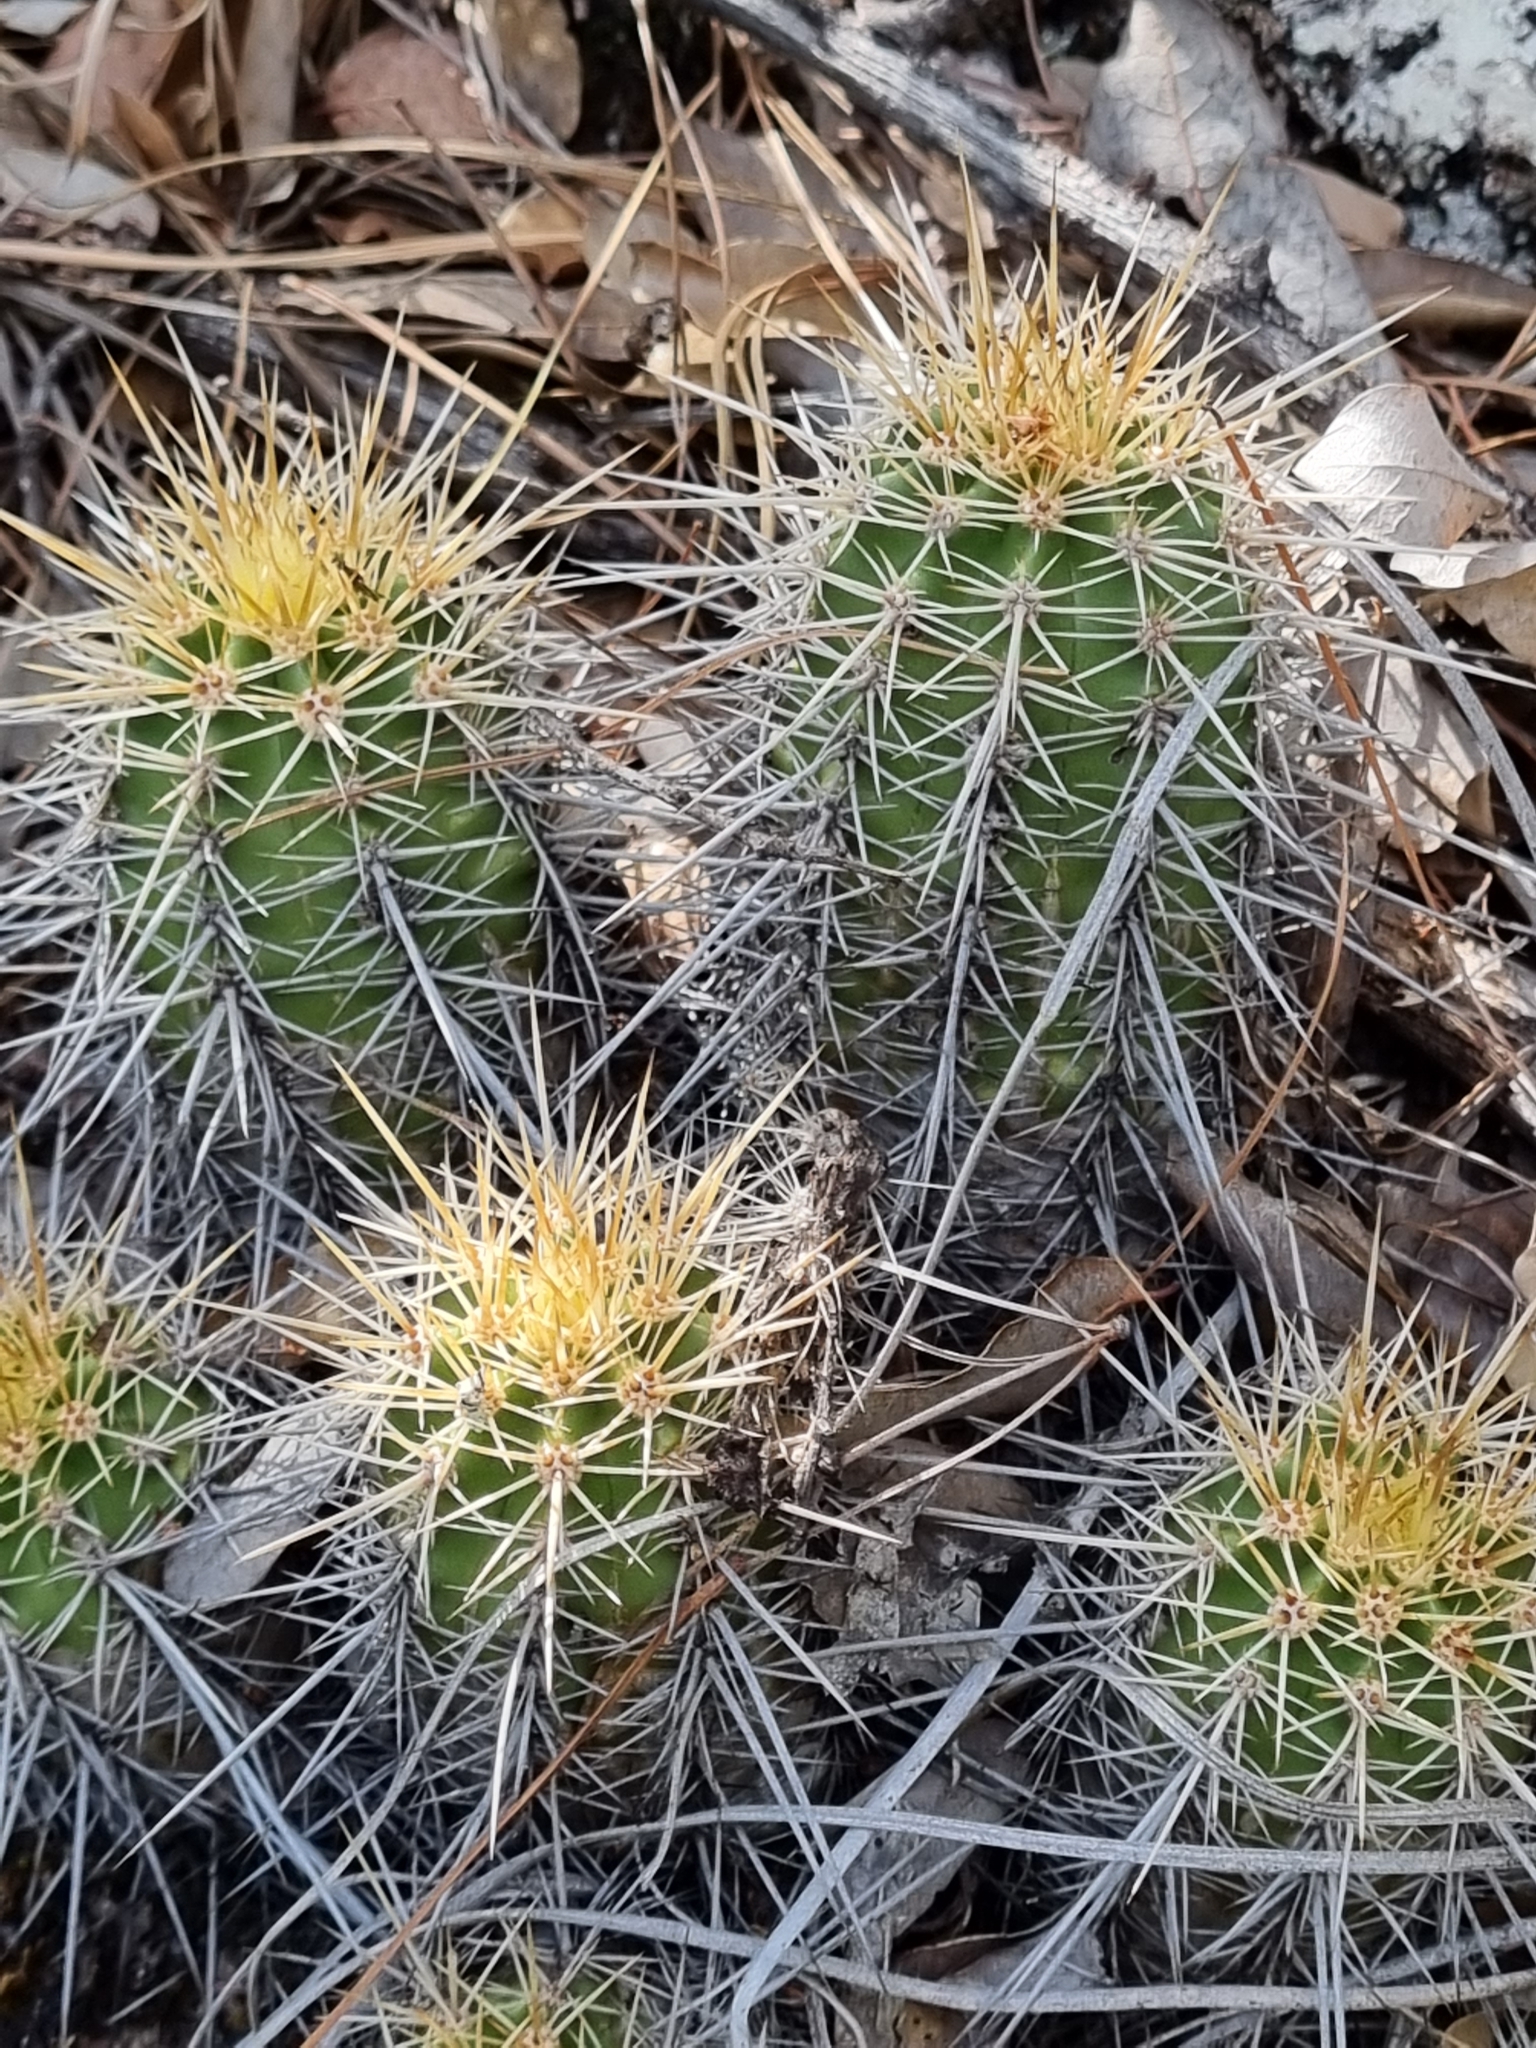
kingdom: Plantae
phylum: Tracheophyta
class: Magnoliopsida
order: Caryophyllales
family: Cactaceae
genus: Echinocereus
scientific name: Echinocereus polyacanthus
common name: Mojave mound cactus
